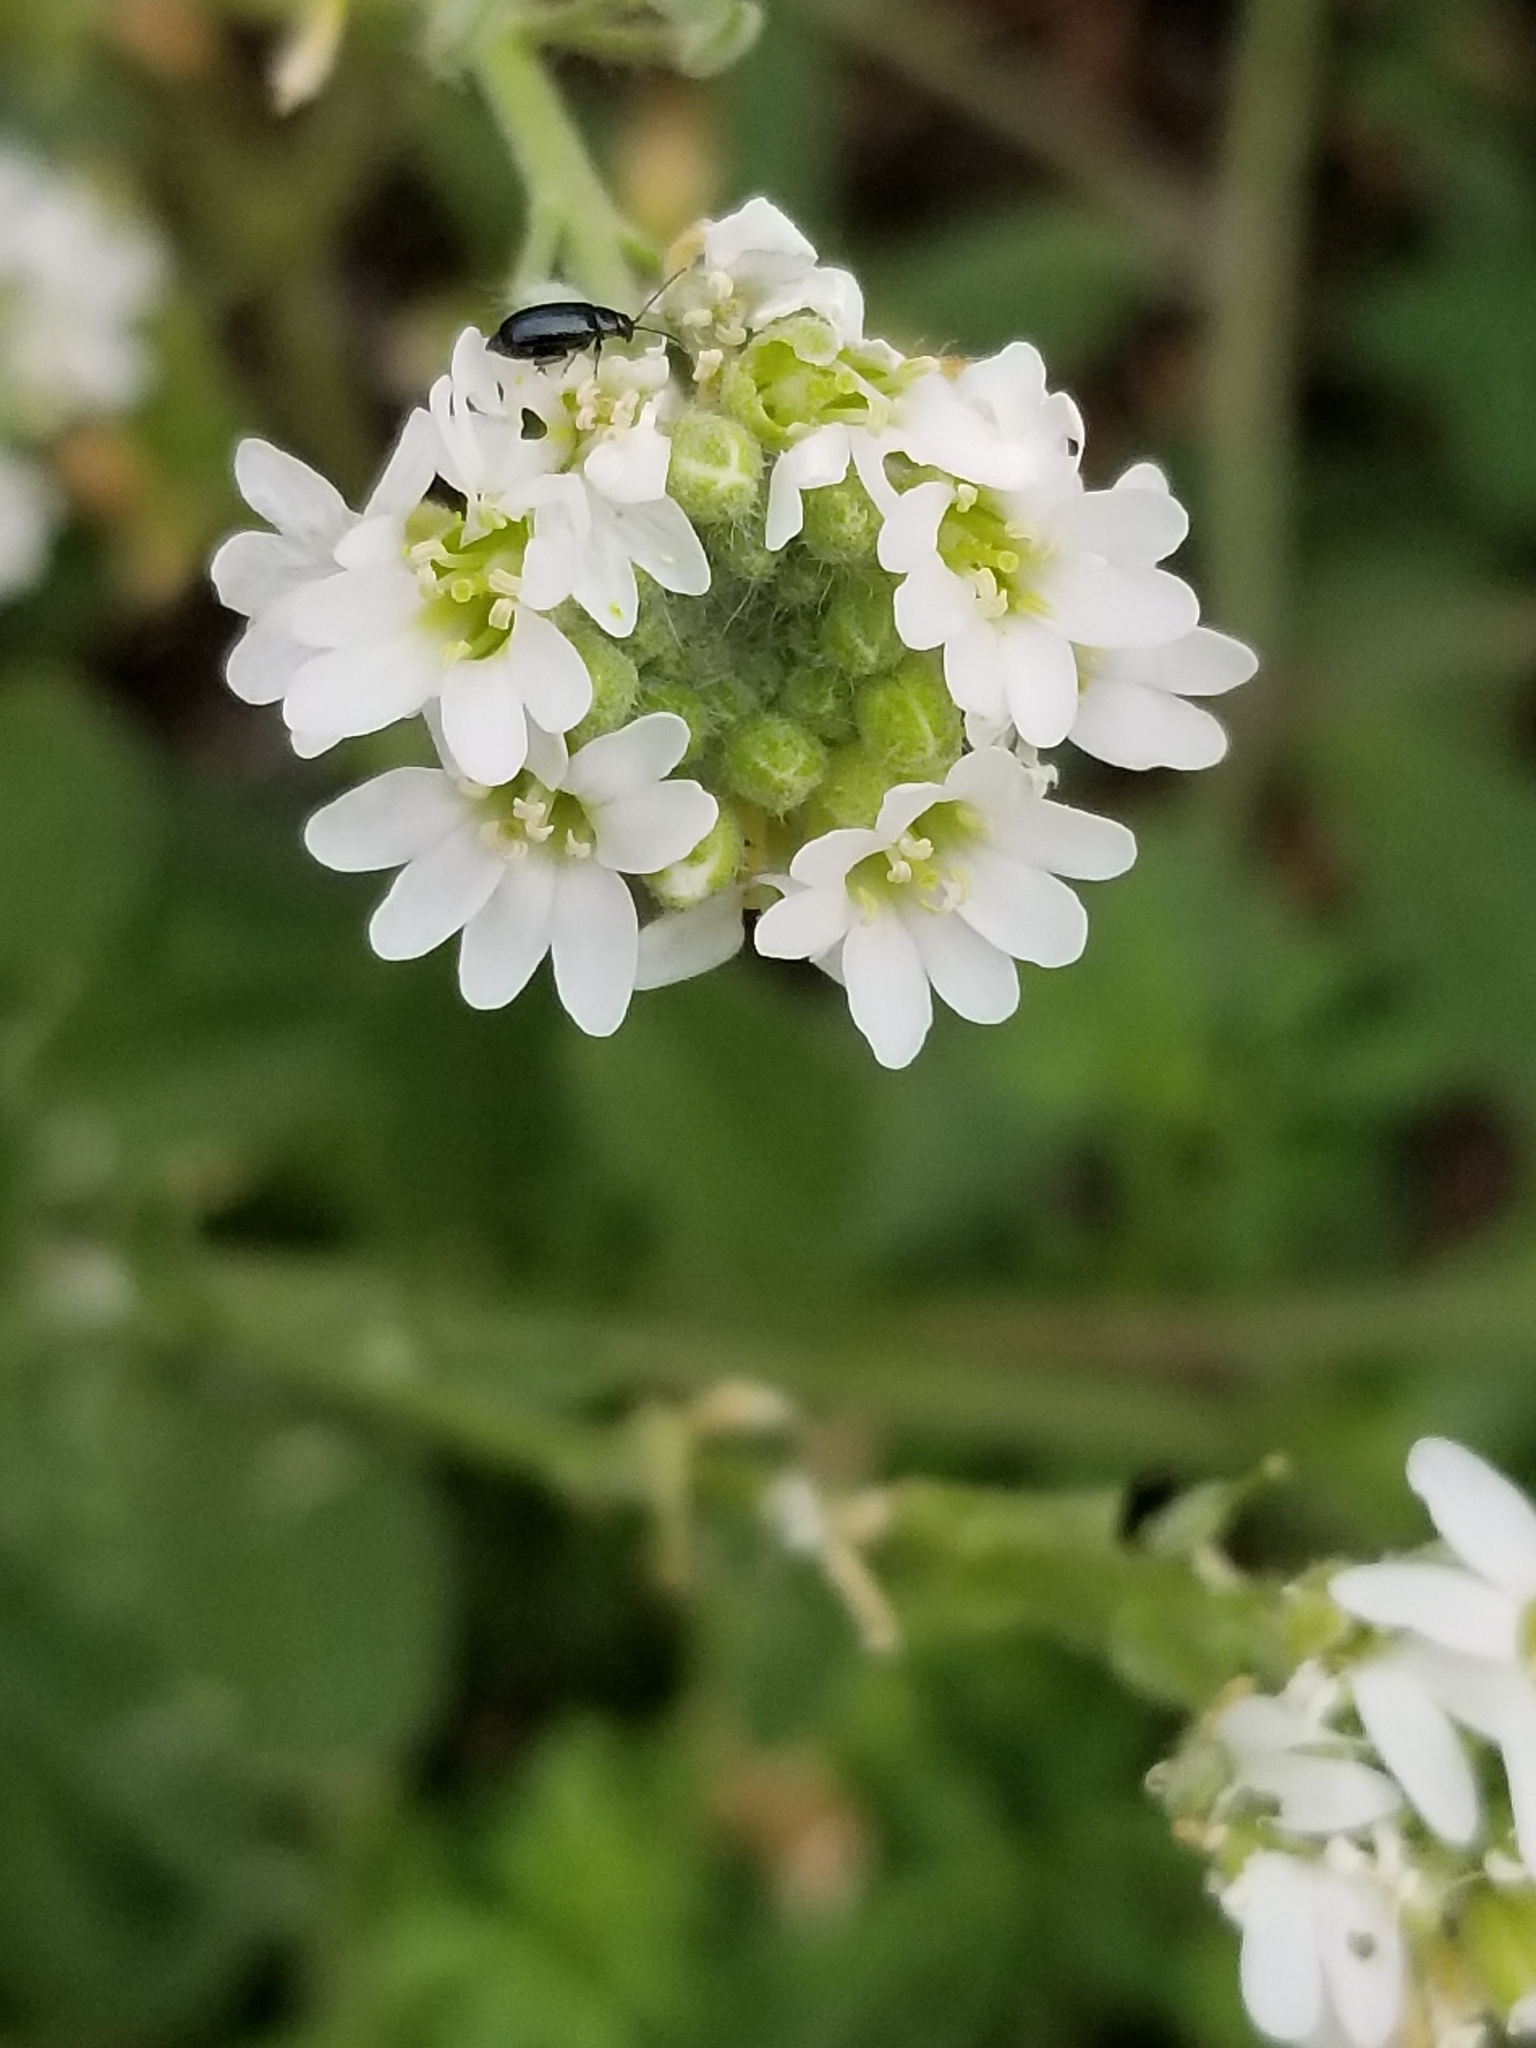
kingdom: Plantae
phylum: Tracheophyta
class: Magnoliopsida
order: Brassicales
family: Brassicaceae
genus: Berteroa
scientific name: Berteroa incana
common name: Hoary alison
